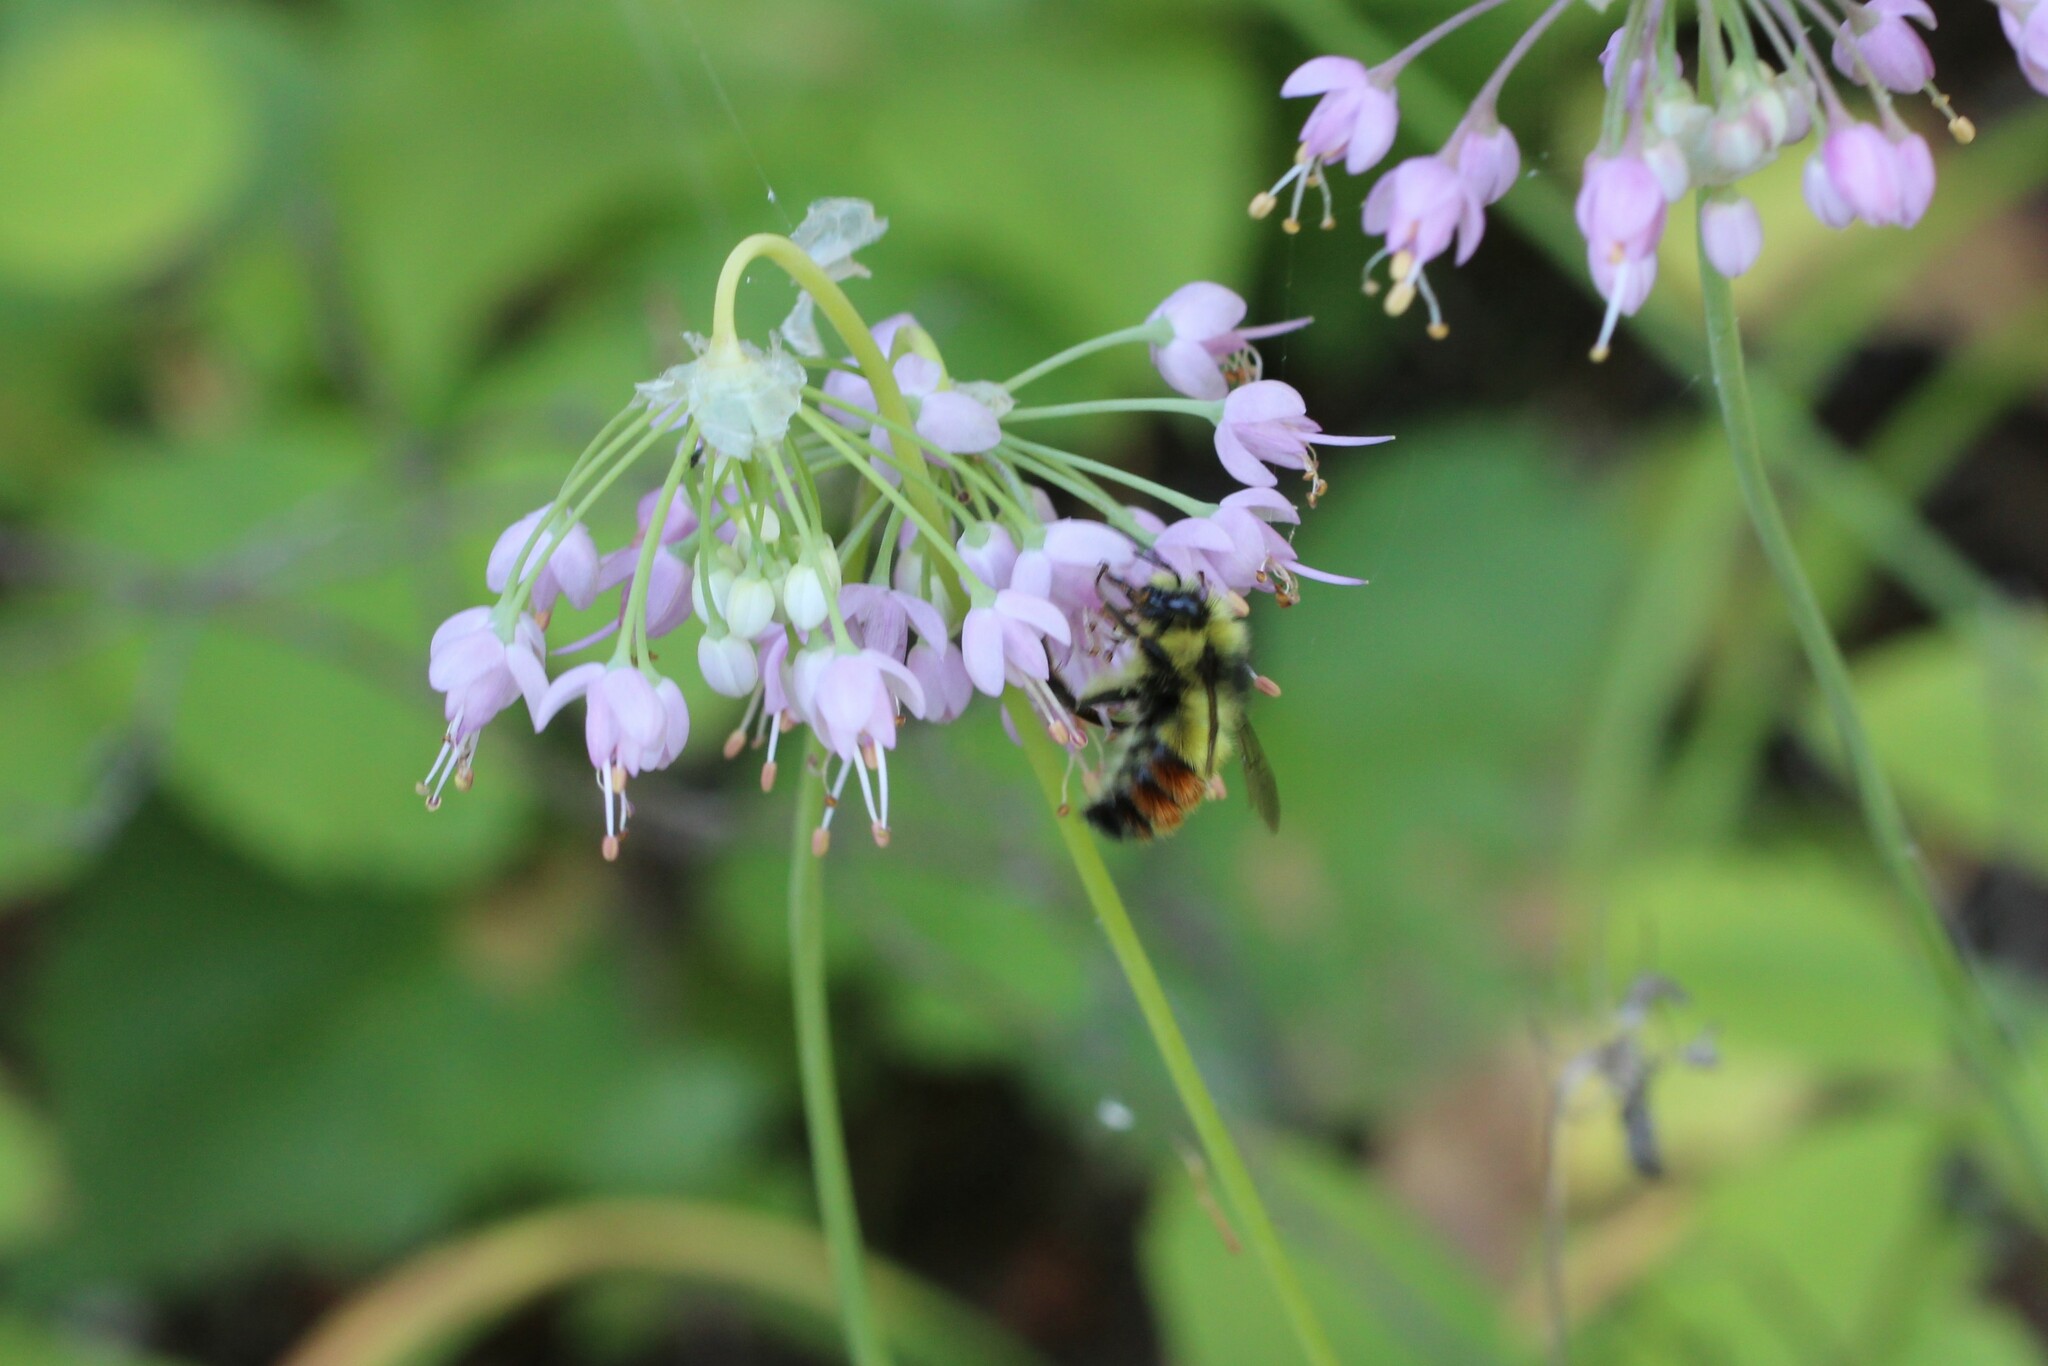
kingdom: Animalia
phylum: Arthropoda
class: Insecta
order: Hymenoptera
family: Apidae
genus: Pyrobombus
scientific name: Pyrobombus
